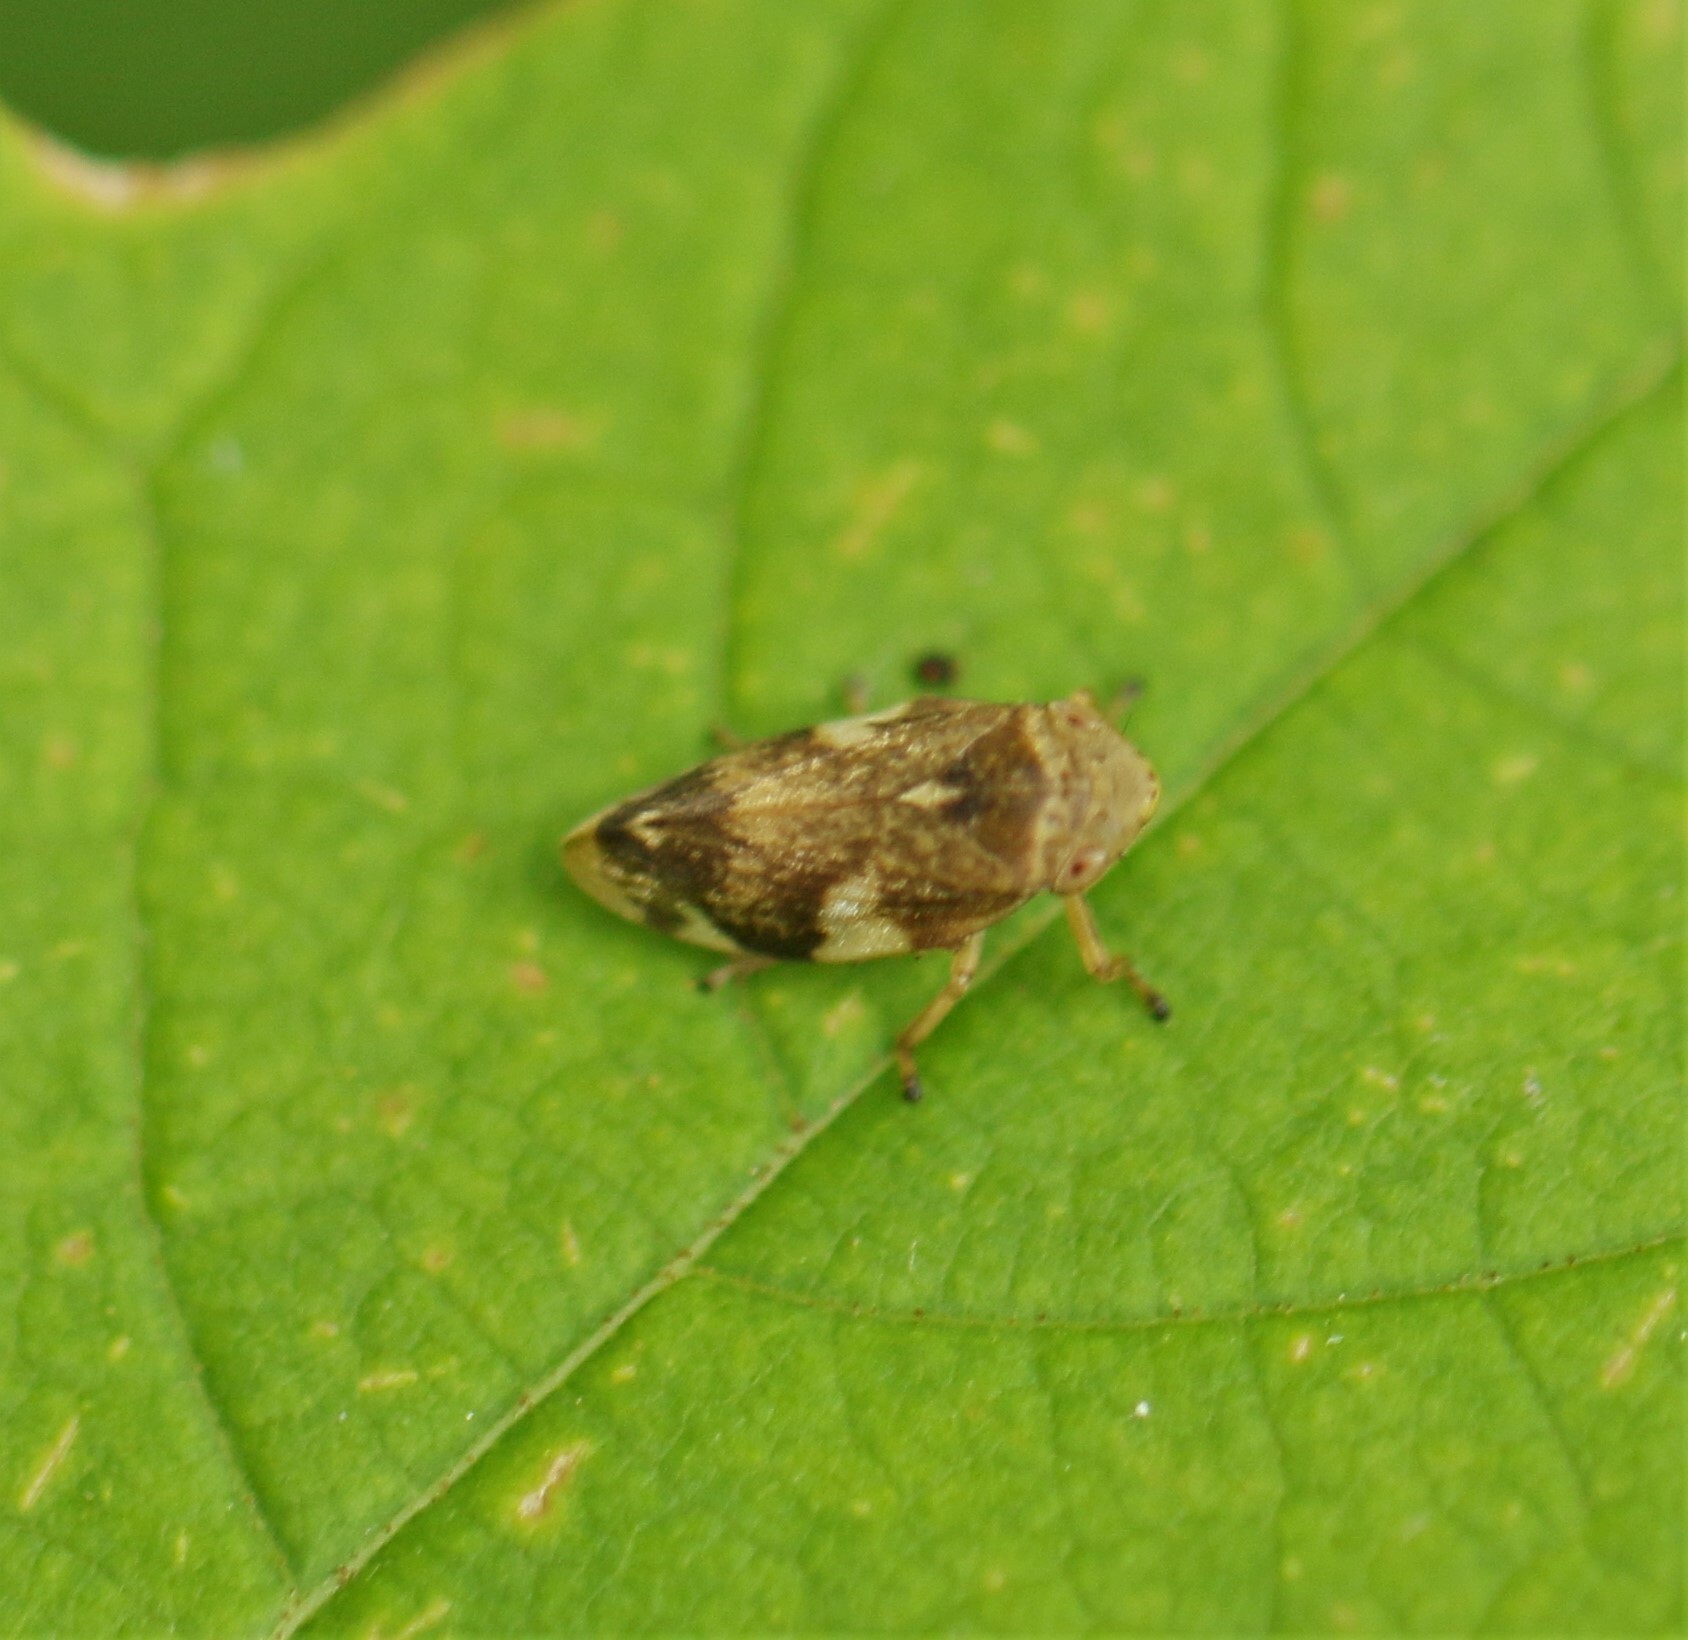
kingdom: Animalia
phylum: Arthropoda
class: Insecta
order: Hemiptera
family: Aphrophoridae
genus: Philaenus
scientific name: Philaenus spumarius
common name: Meadow spittlebug
